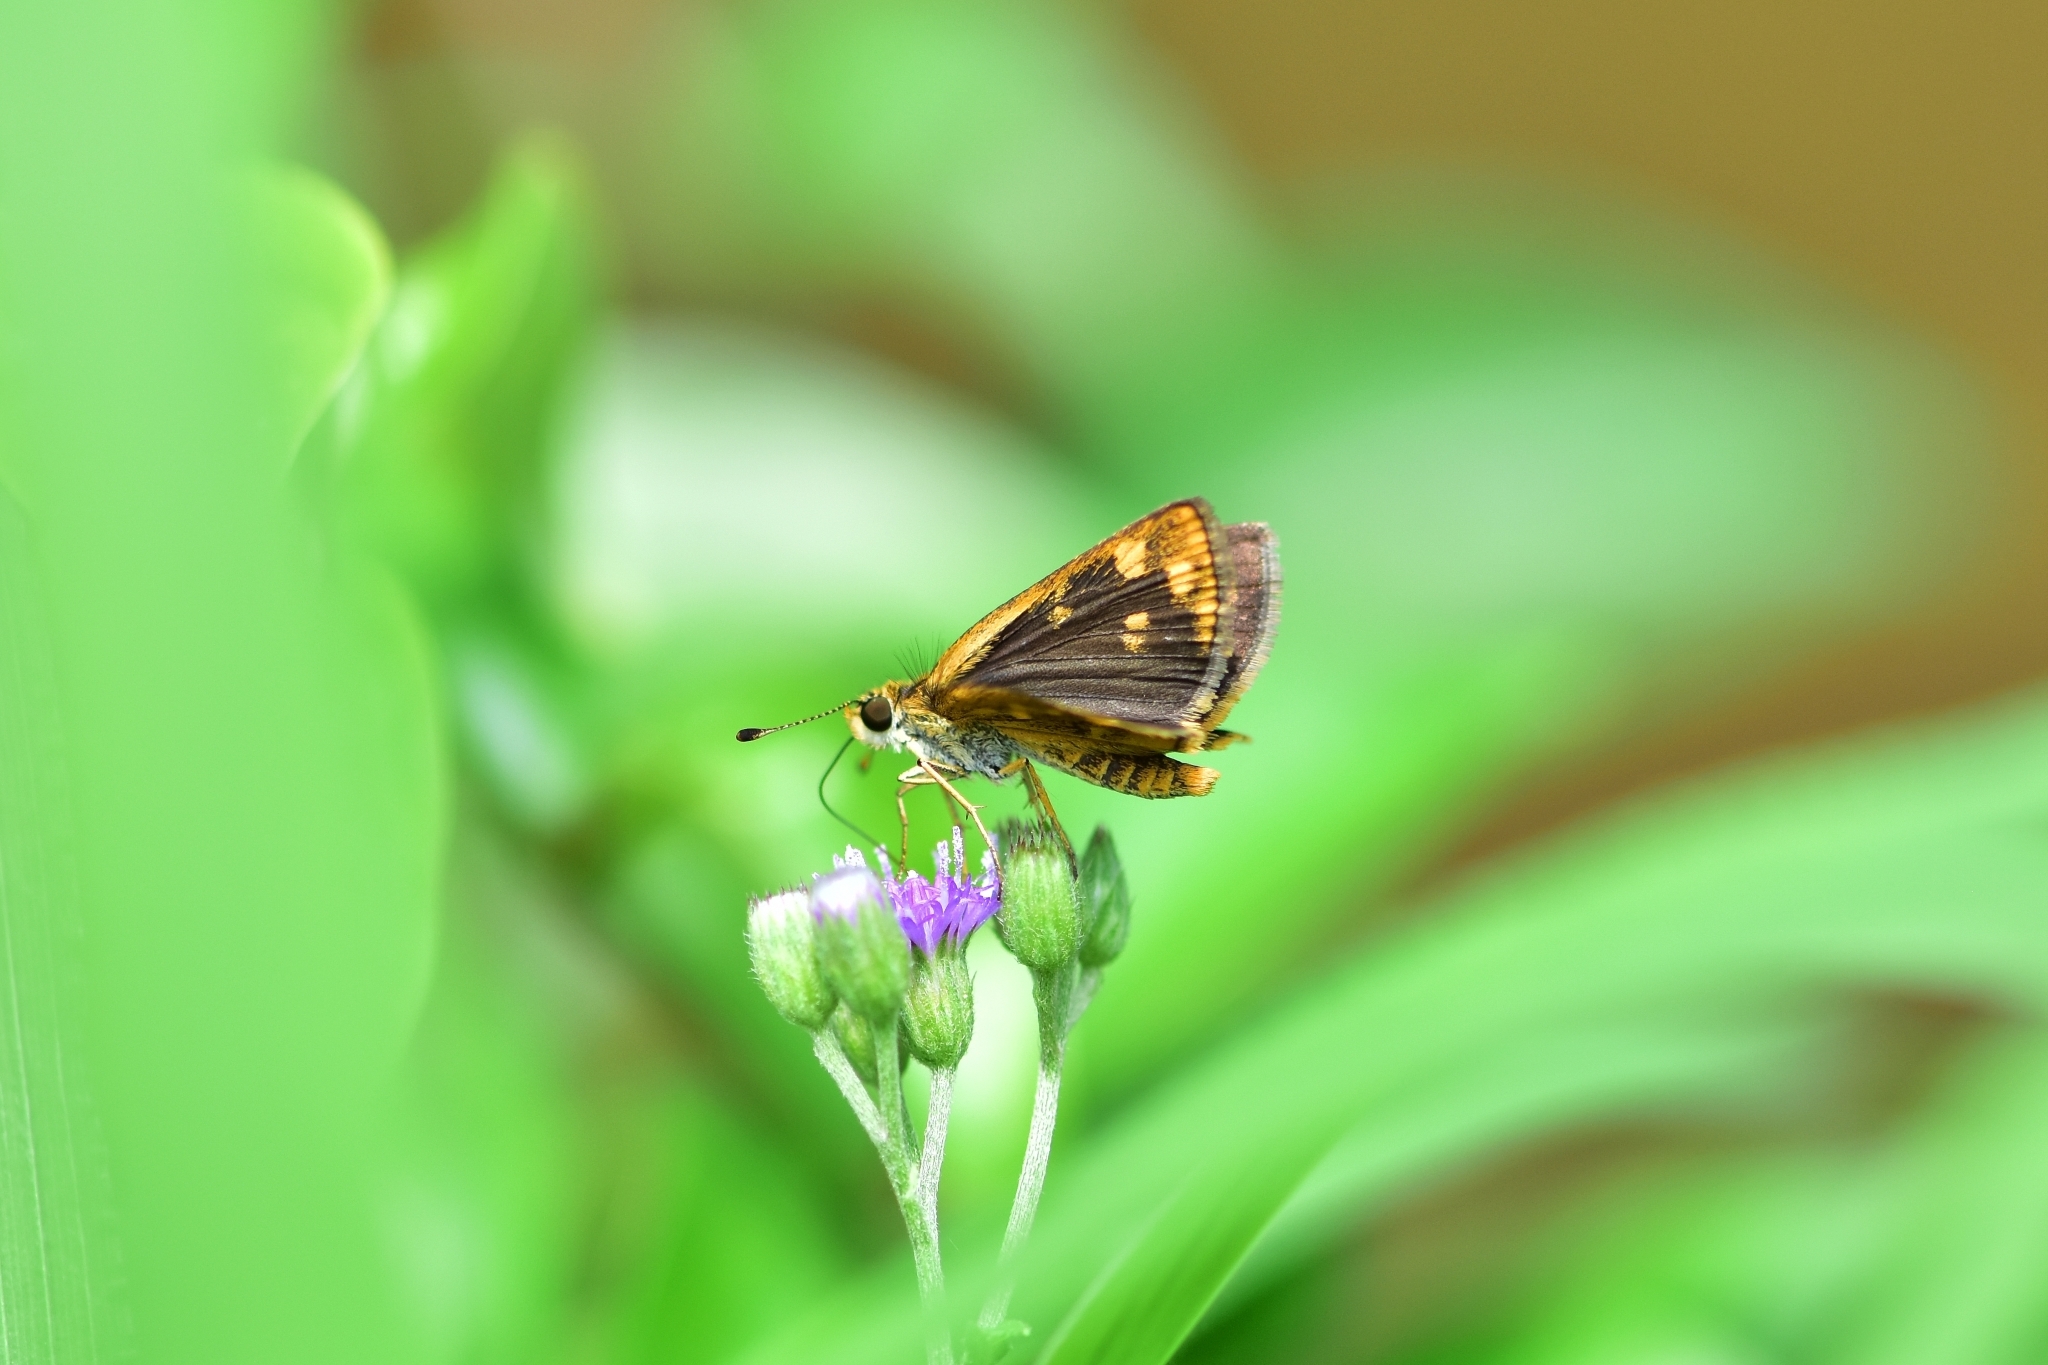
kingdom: Animalia
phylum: Arthropoda
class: Insecta
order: Lepidoptera
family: Hesperiidae
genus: Taractrocera
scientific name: Taractrocera ceramas
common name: Tamil grass dart
